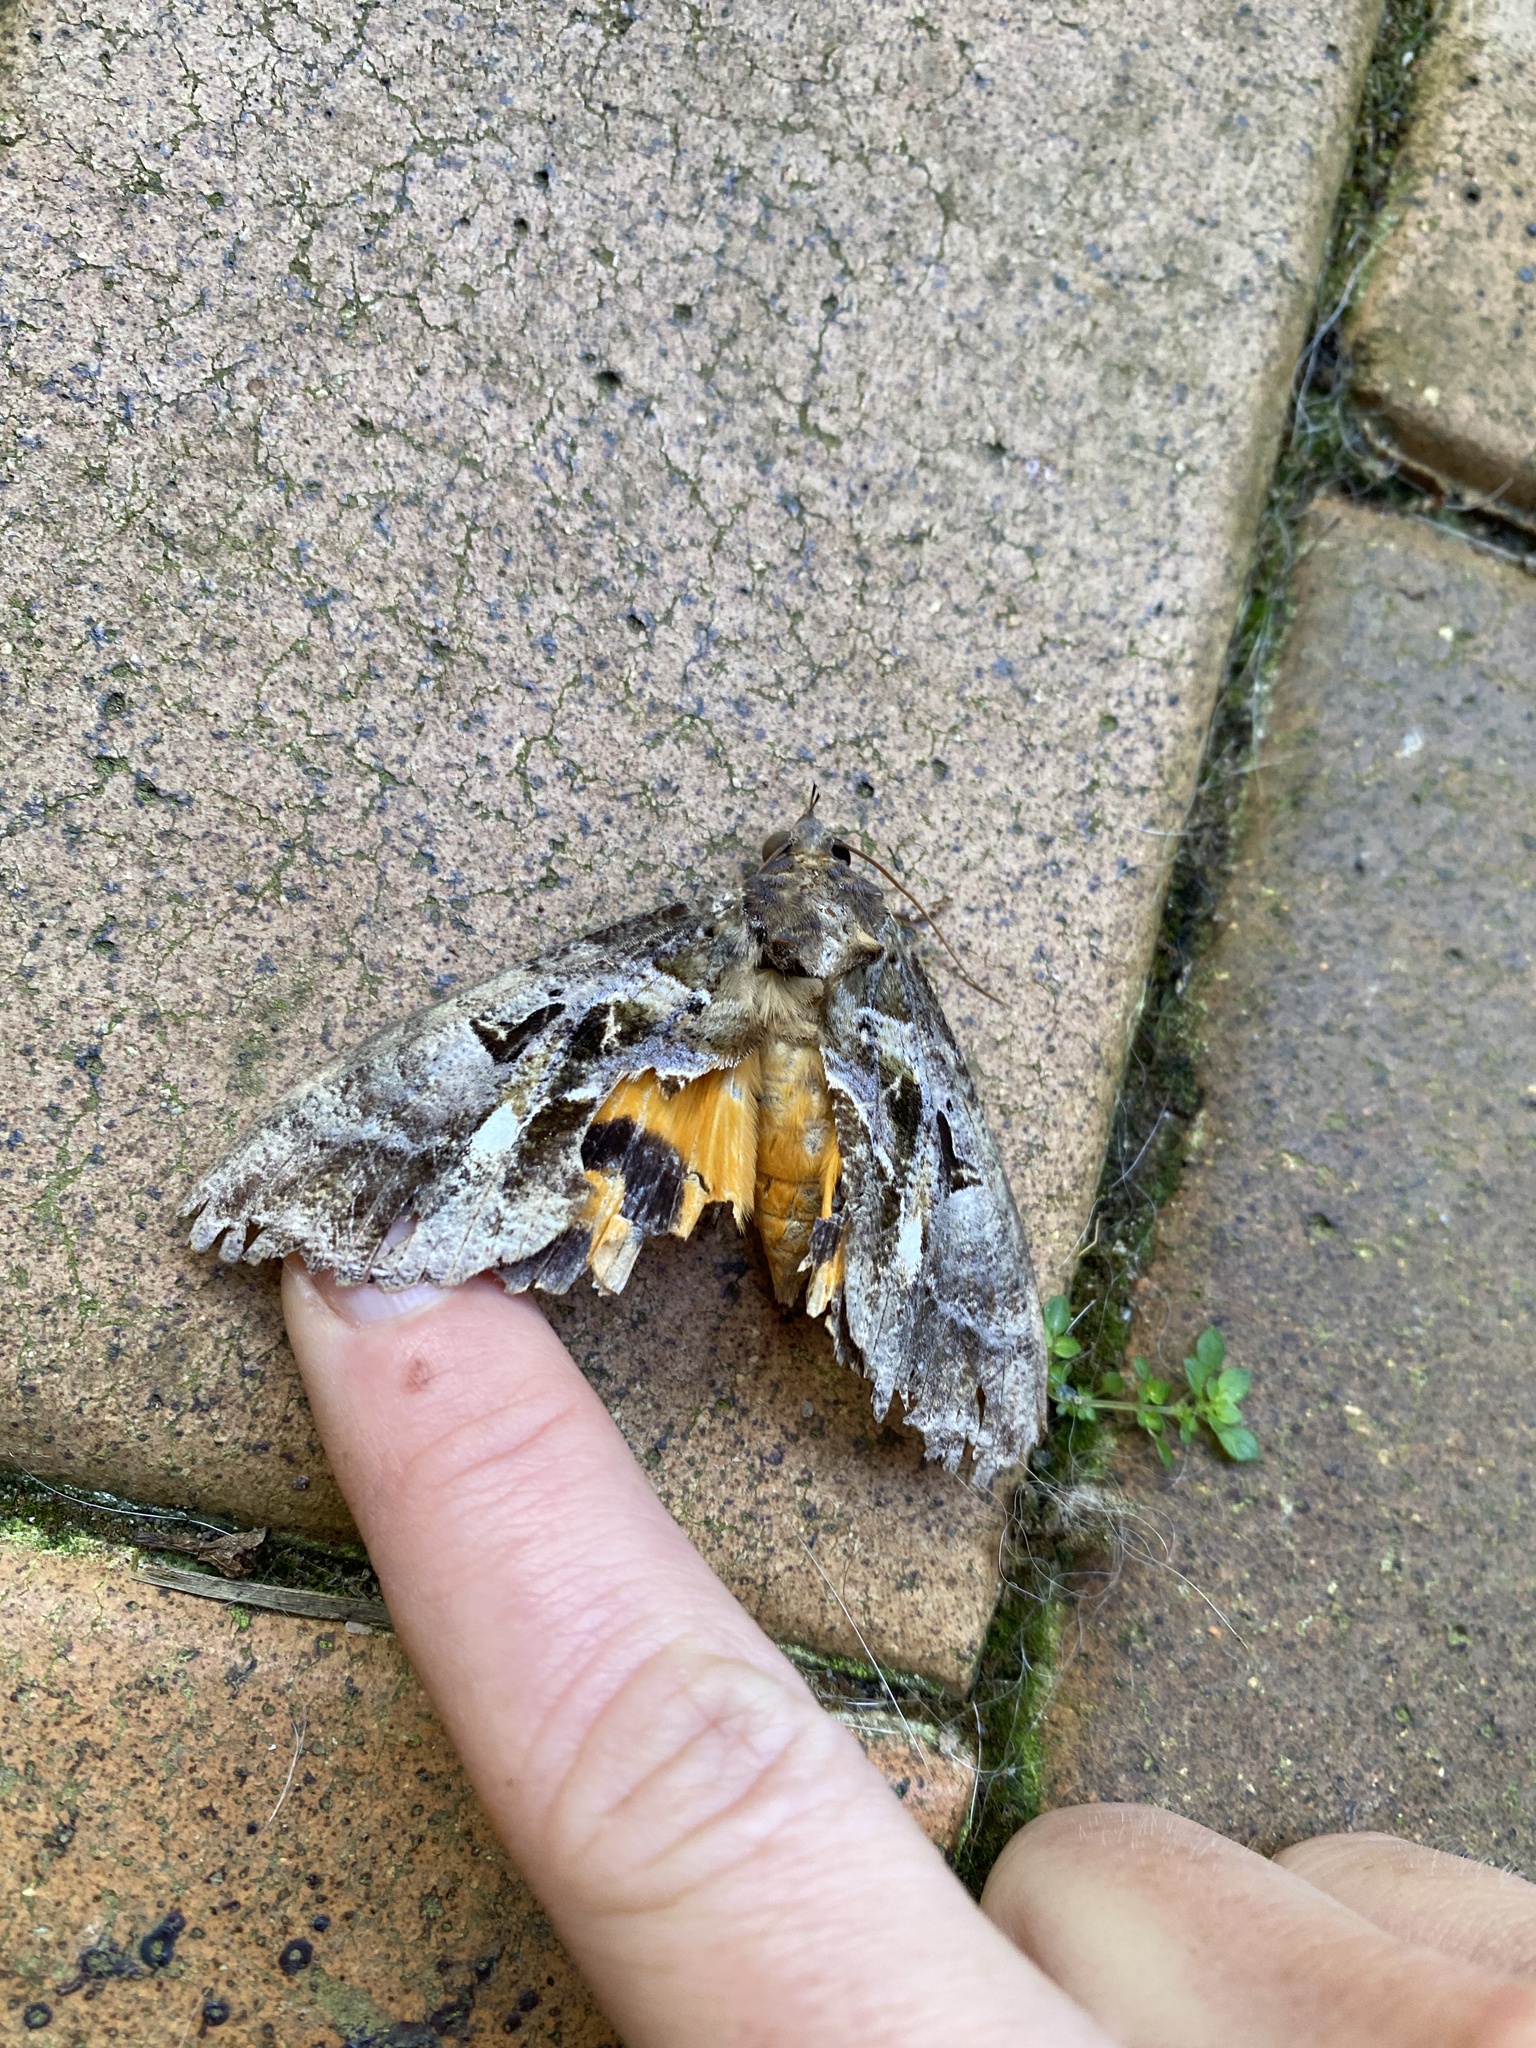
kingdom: Animalia
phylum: Arthropoda
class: Insecta
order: Lepidoptera
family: Erebidae
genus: Eudocima
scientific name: Eudocima phalonia
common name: Wasp
